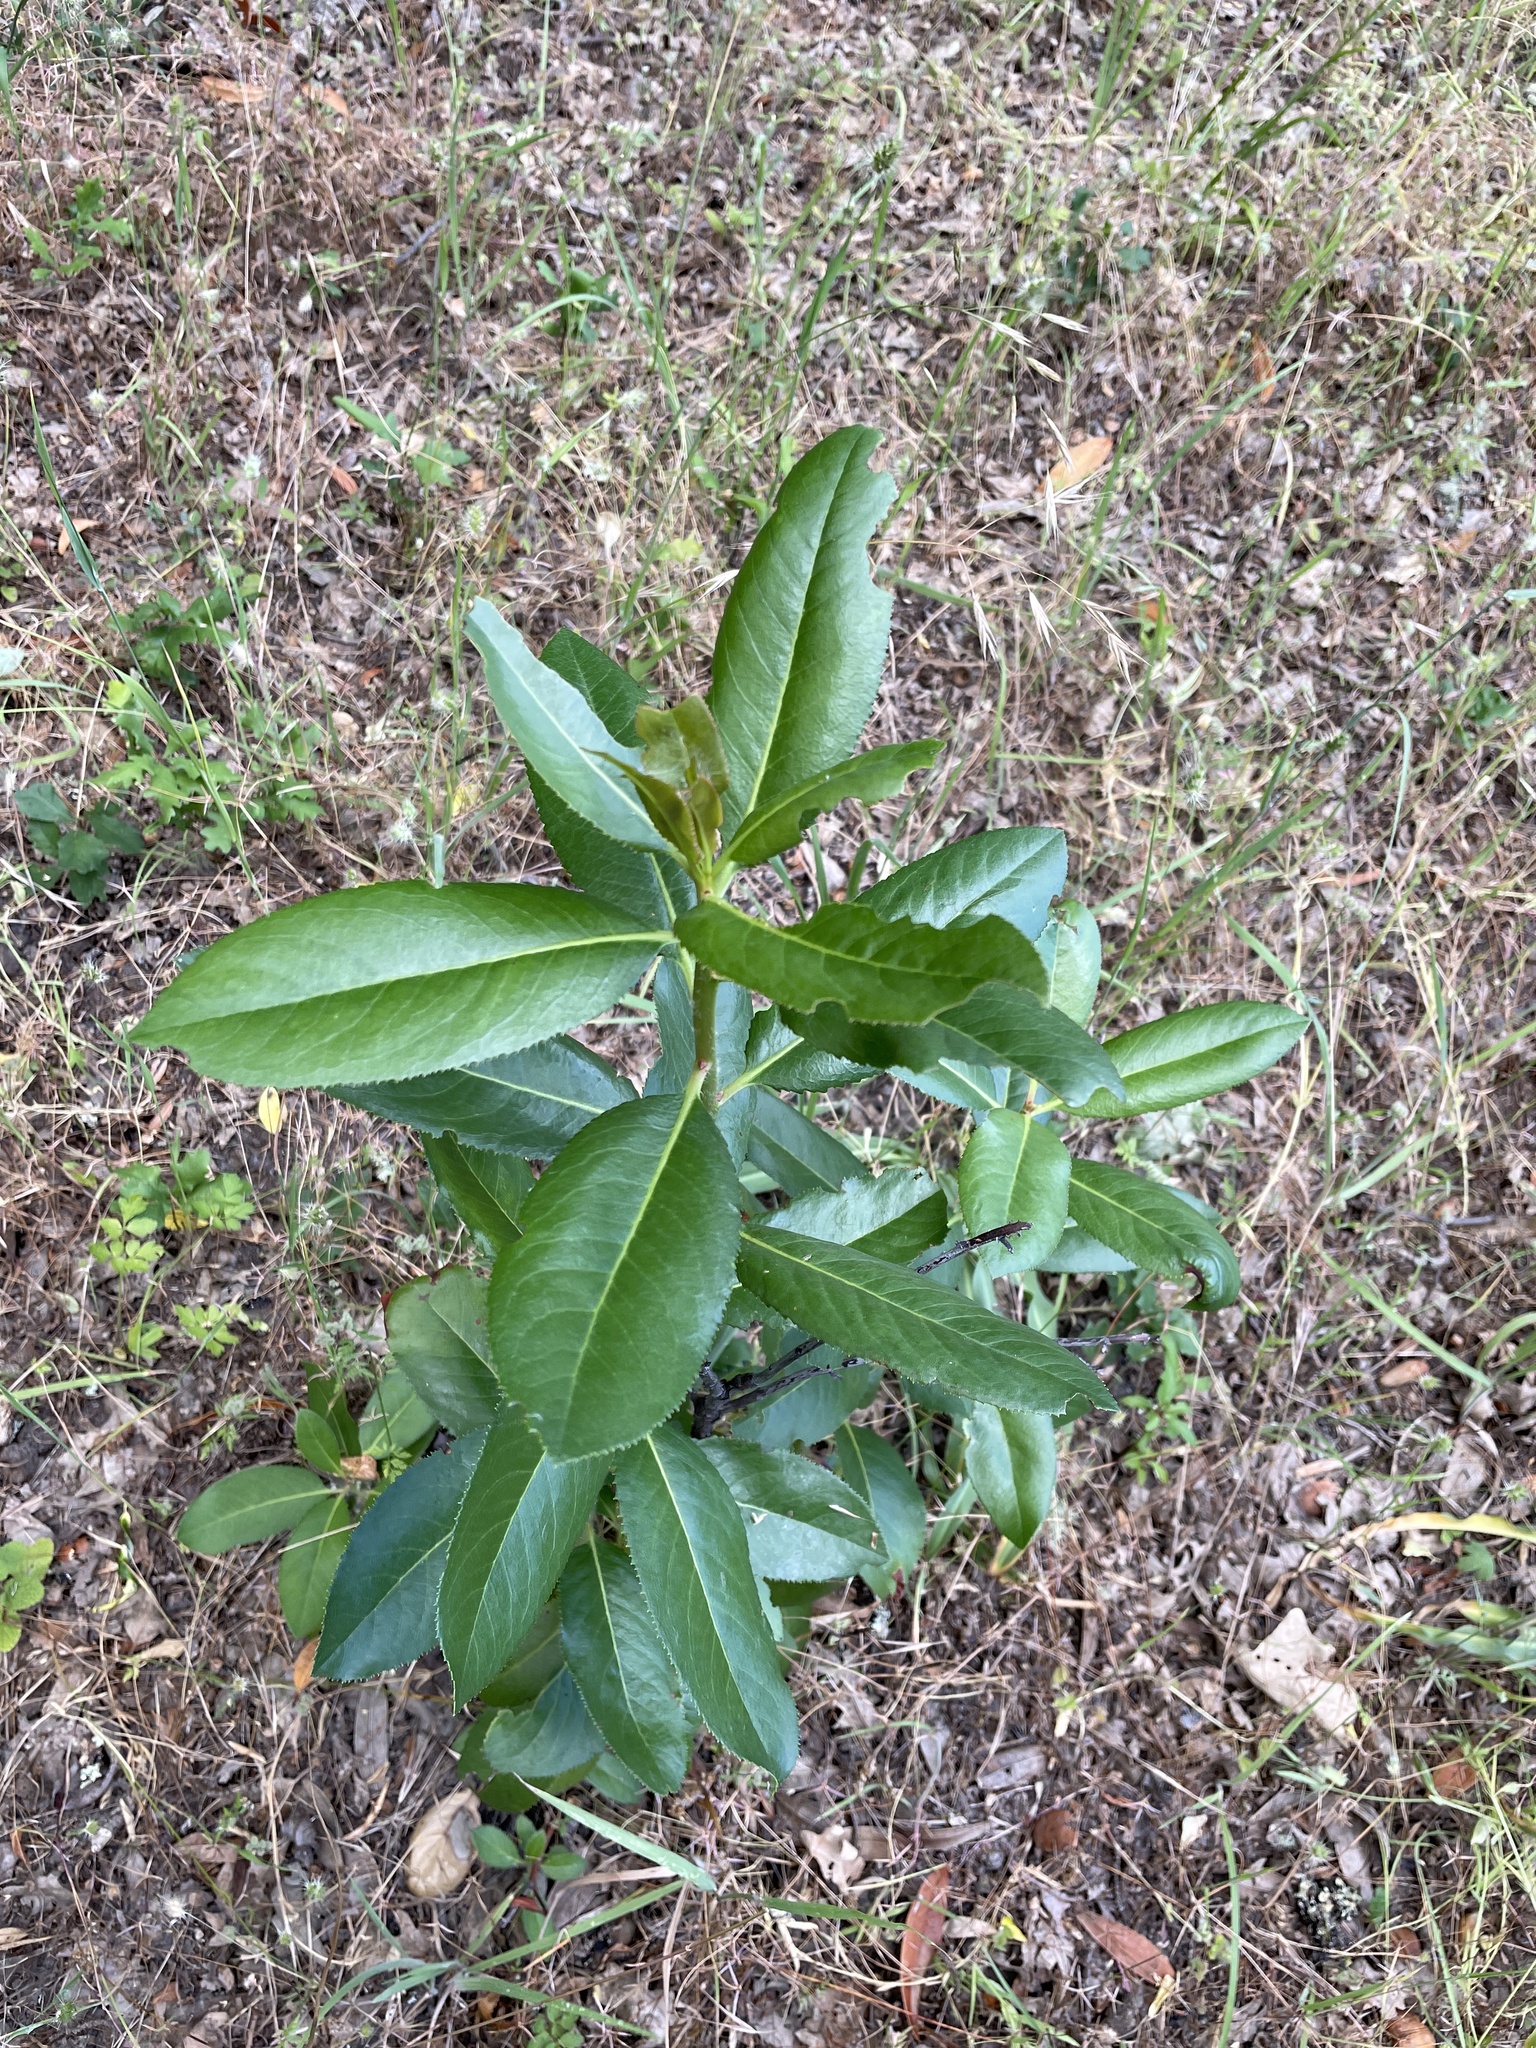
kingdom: Plantae
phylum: Tracheophyta
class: Magnoliopsida
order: Ericales
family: Ericaceae
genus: Arbutus
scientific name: Arbutus menziesii
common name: Pacific madrone
